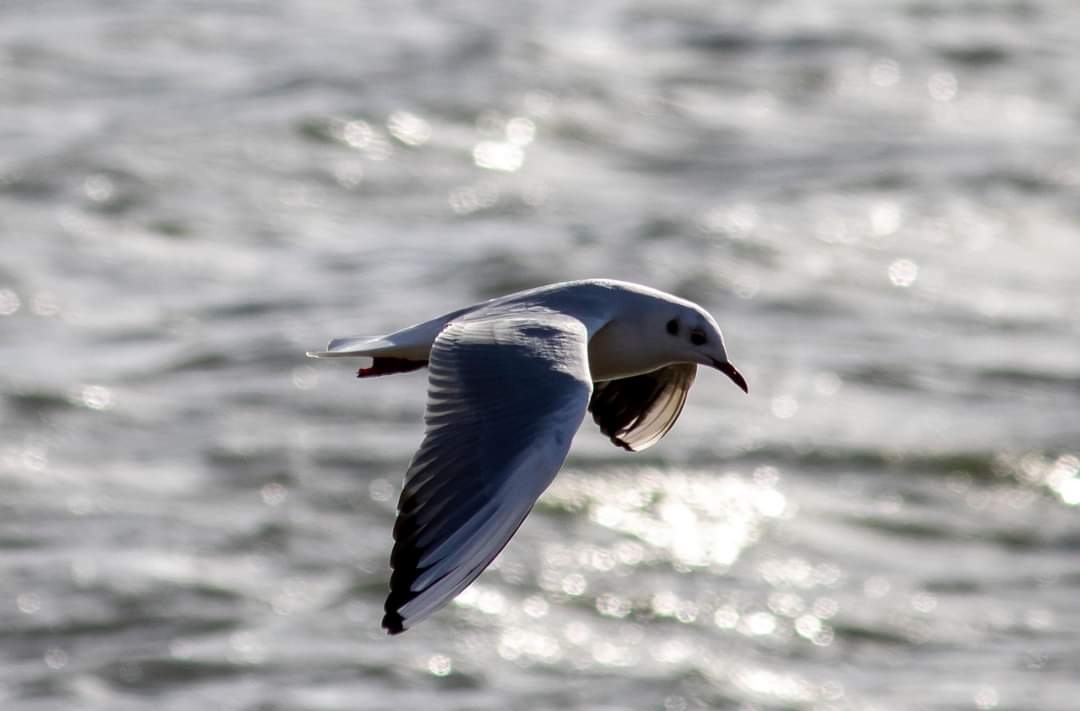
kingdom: Animalia
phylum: Chordata
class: Aves
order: Charadriiformes
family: Laridae
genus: Chroicocephalus
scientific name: Chroicocephalus ridibundus
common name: Black-headed gull
